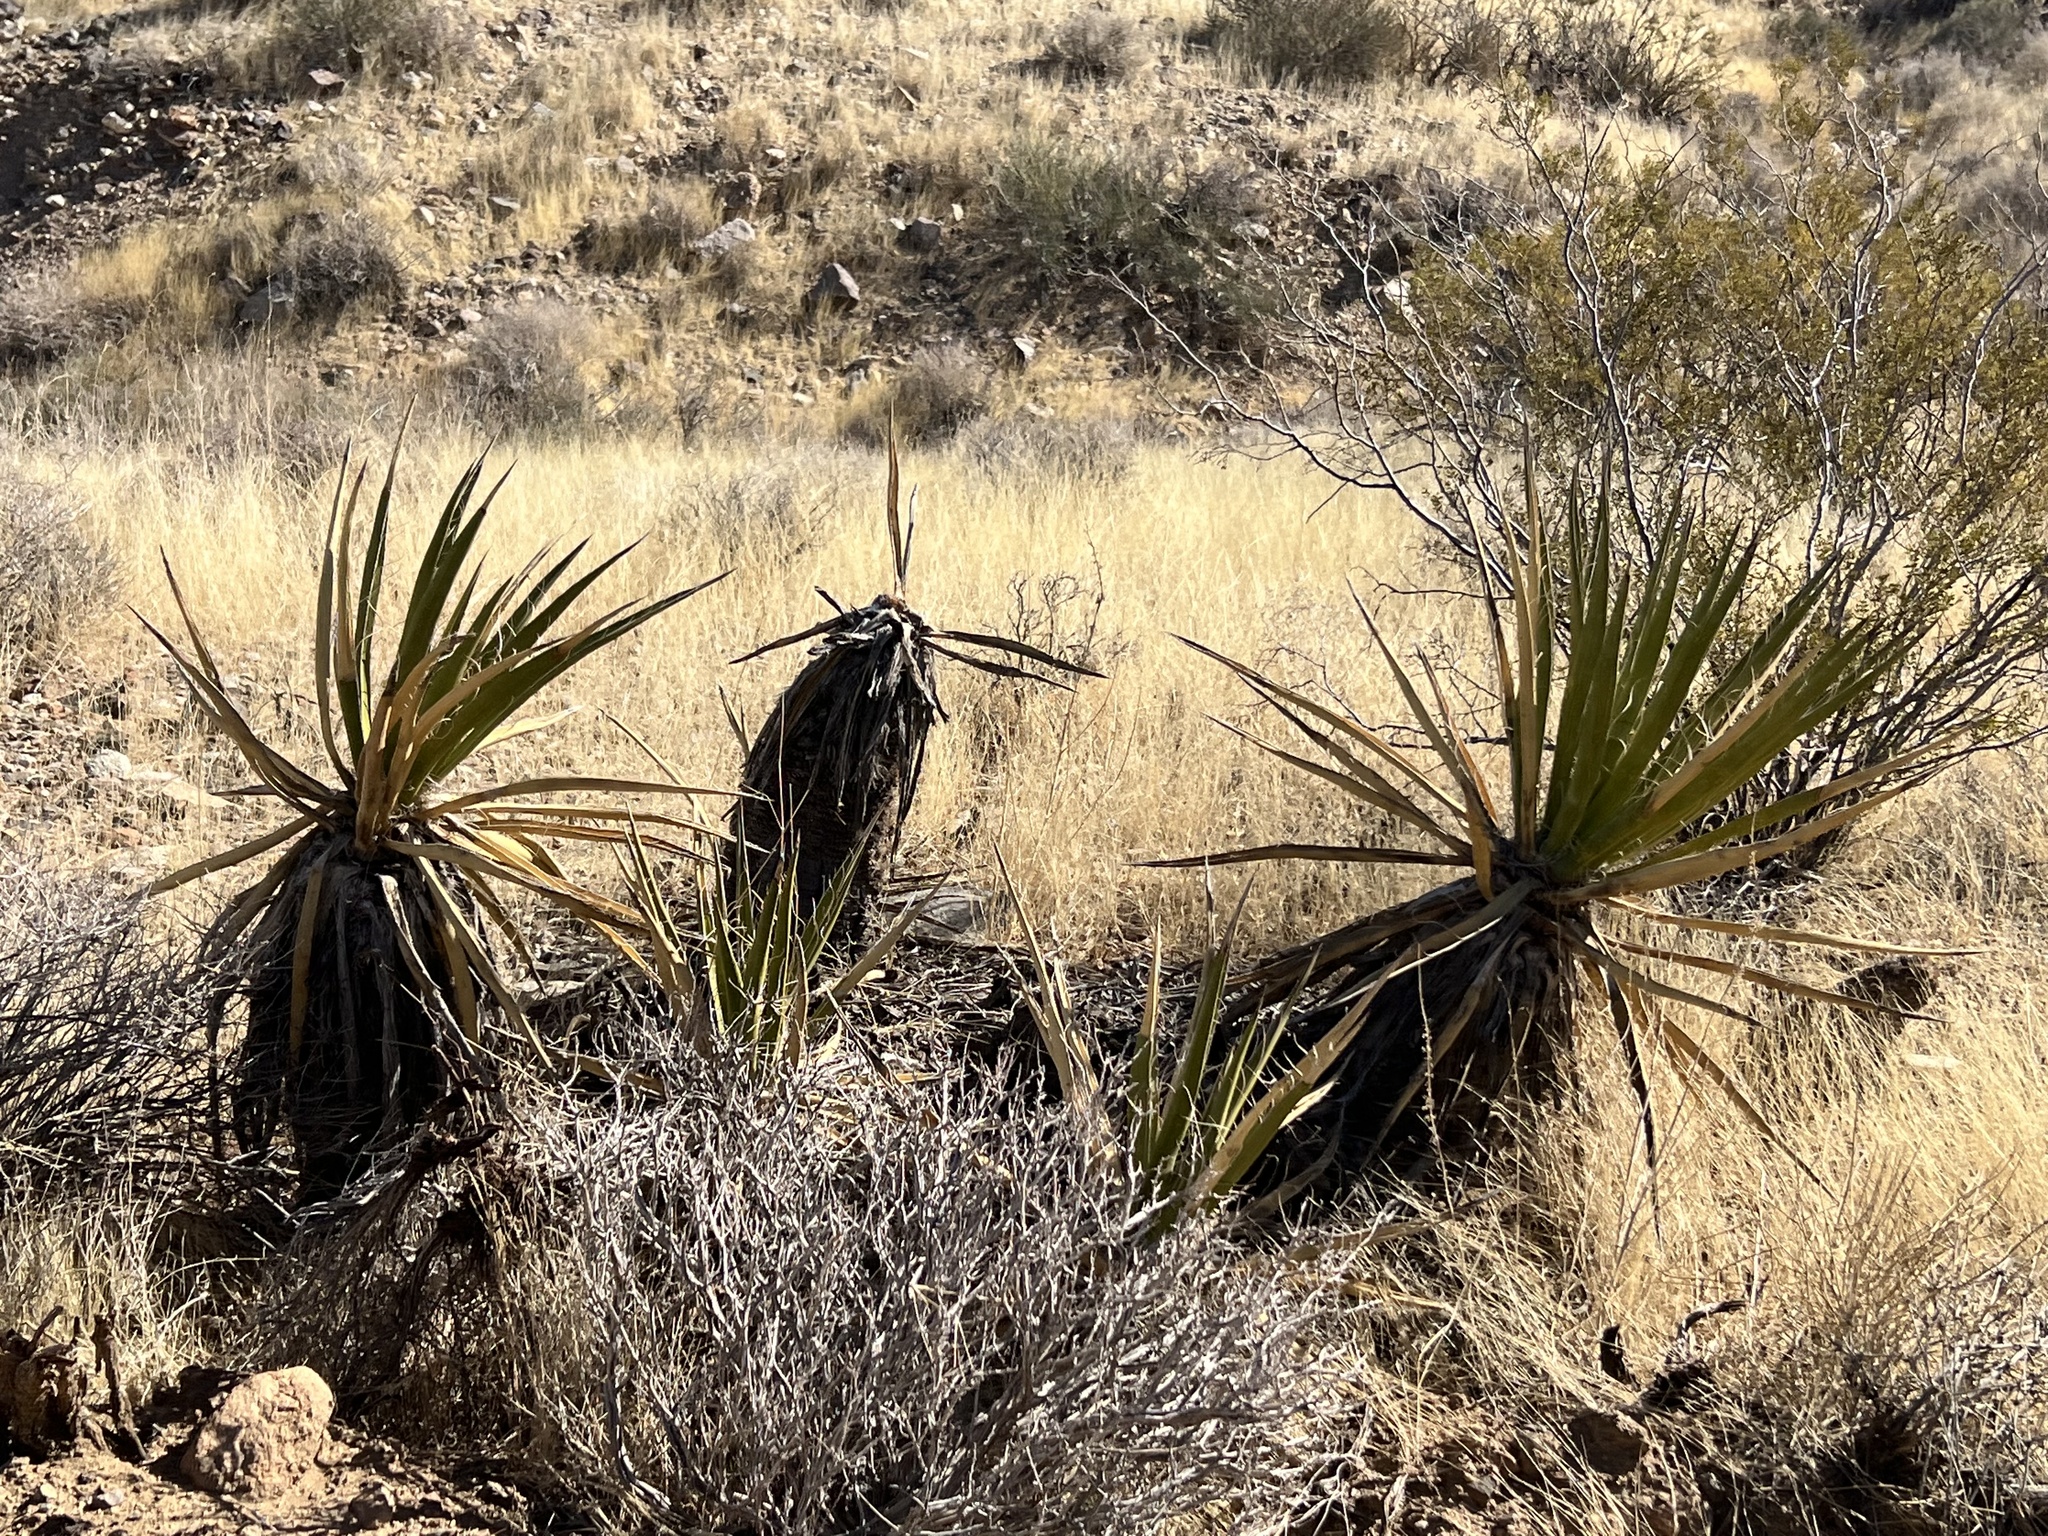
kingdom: Plantae
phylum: Tracheophyta
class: Liliopsida
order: Asparagales
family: Asparagaceae
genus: Yucca
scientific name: Yucca schidigera
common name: Mojave yucca
